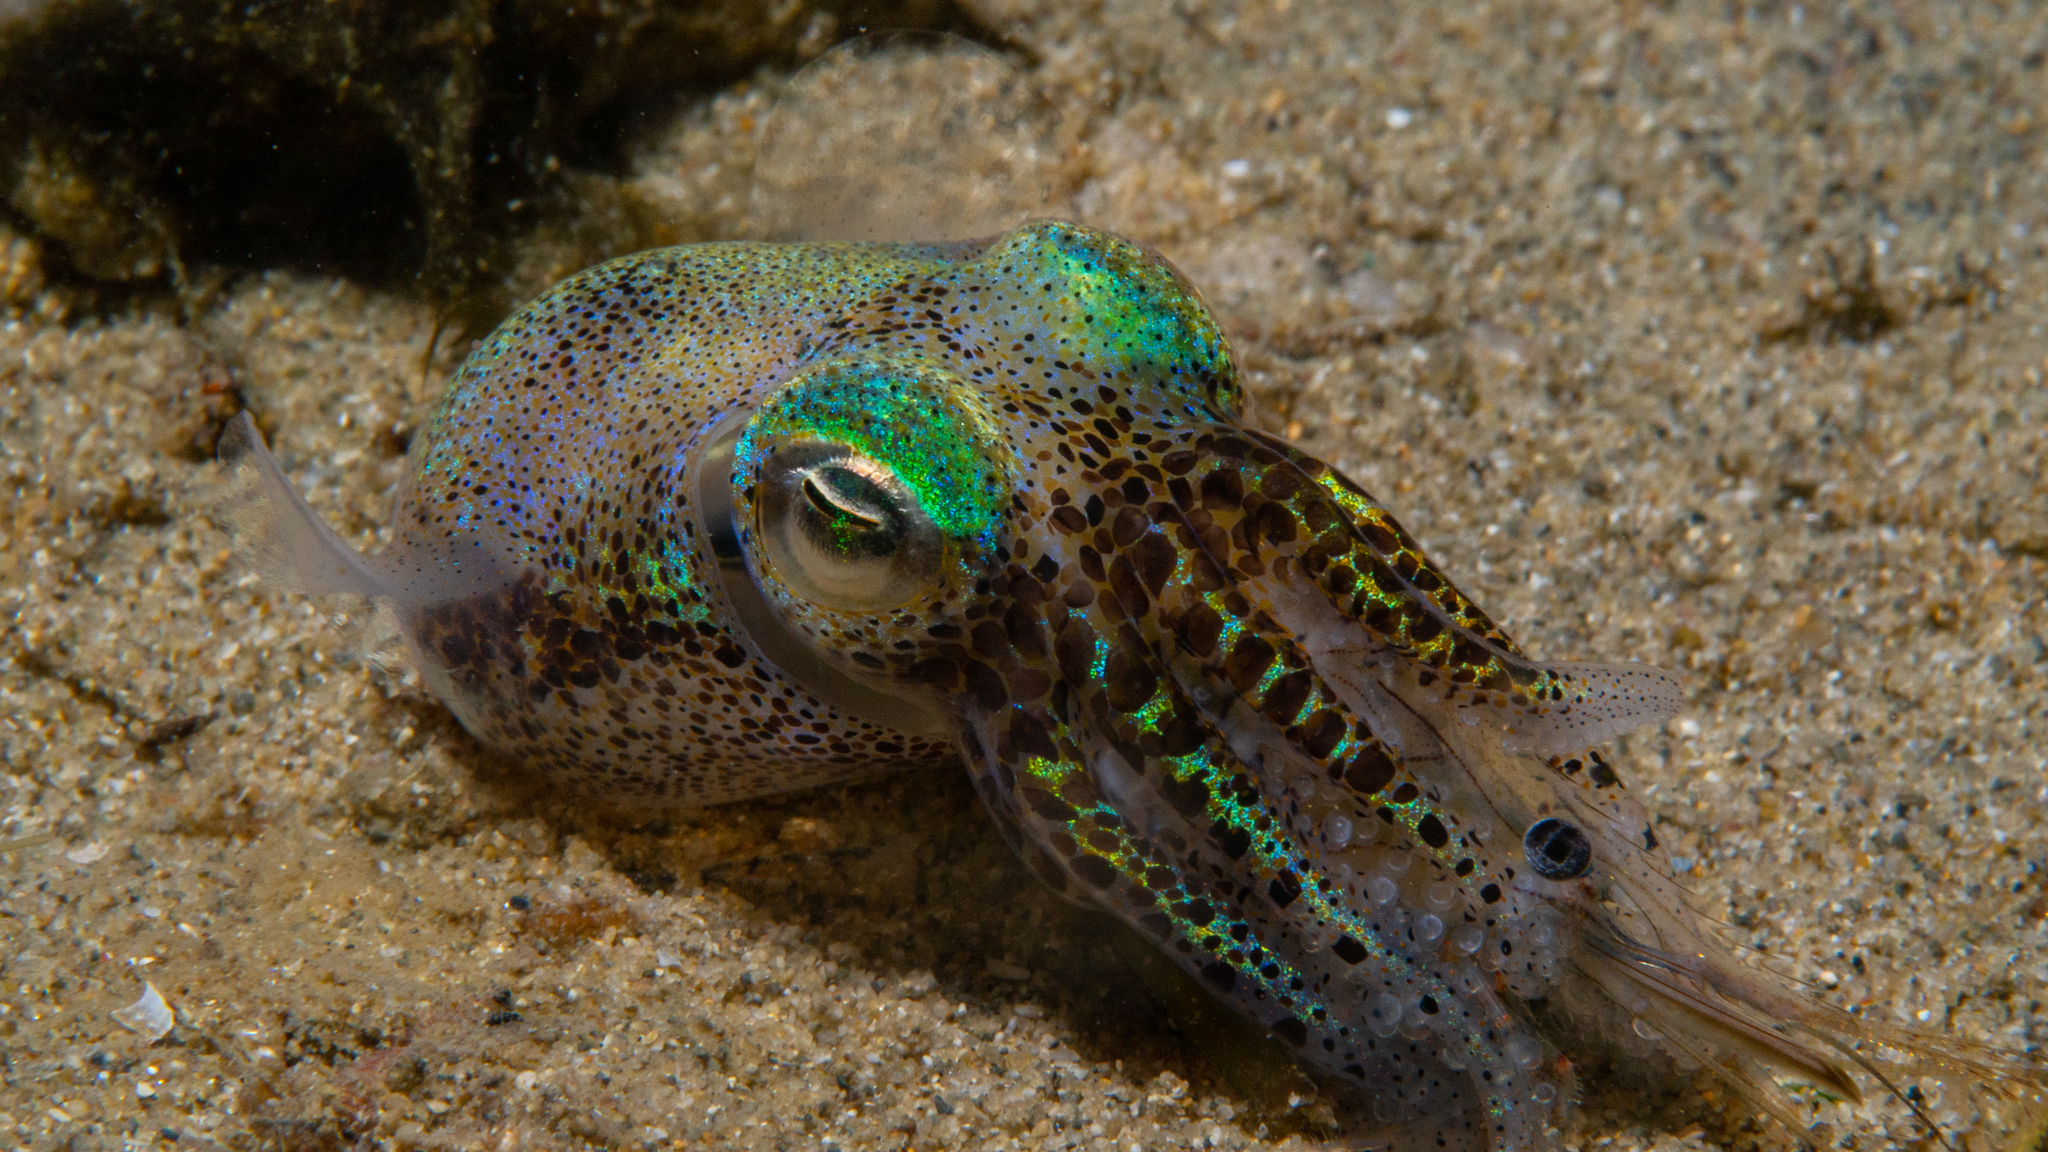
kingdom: Animalia
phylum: Mollusca
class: Cephalopoda
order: Sepiida
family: Sepiolidae
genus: Euprymna
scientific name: Euprymna tasmanica
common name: Southern bobtail squid
